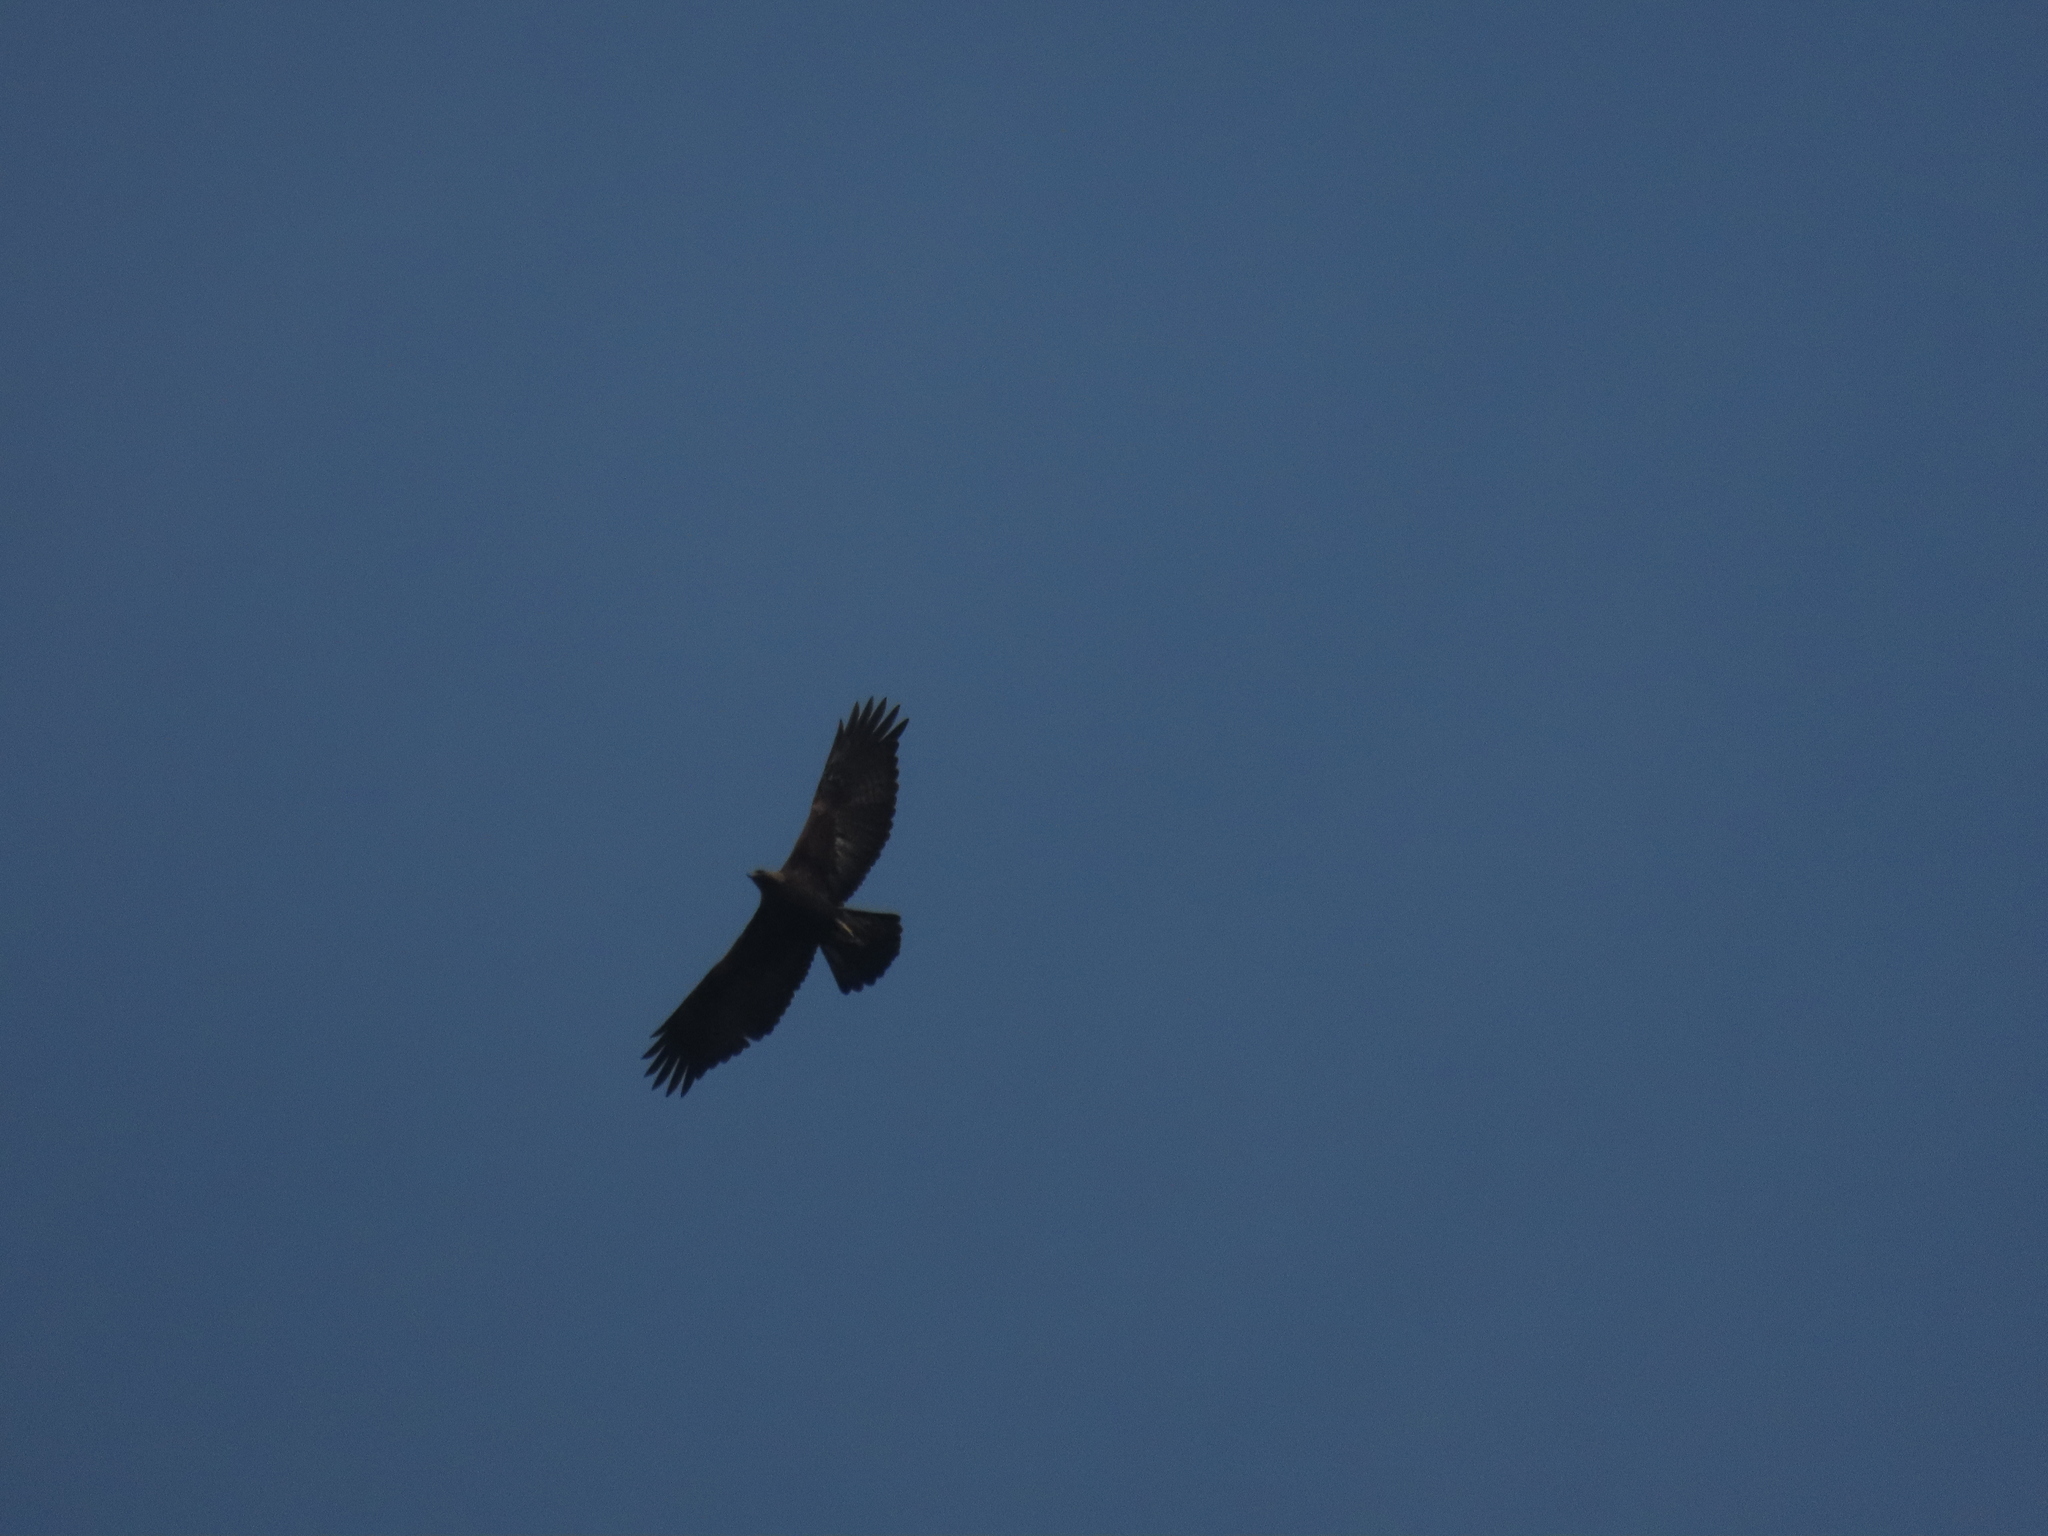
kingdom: Animalia
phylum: Chordata
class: Aves
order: Accipitriformes
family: Accipitridae
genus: Aquila
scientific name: Aquila chrysaetos
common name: Golden eagle
